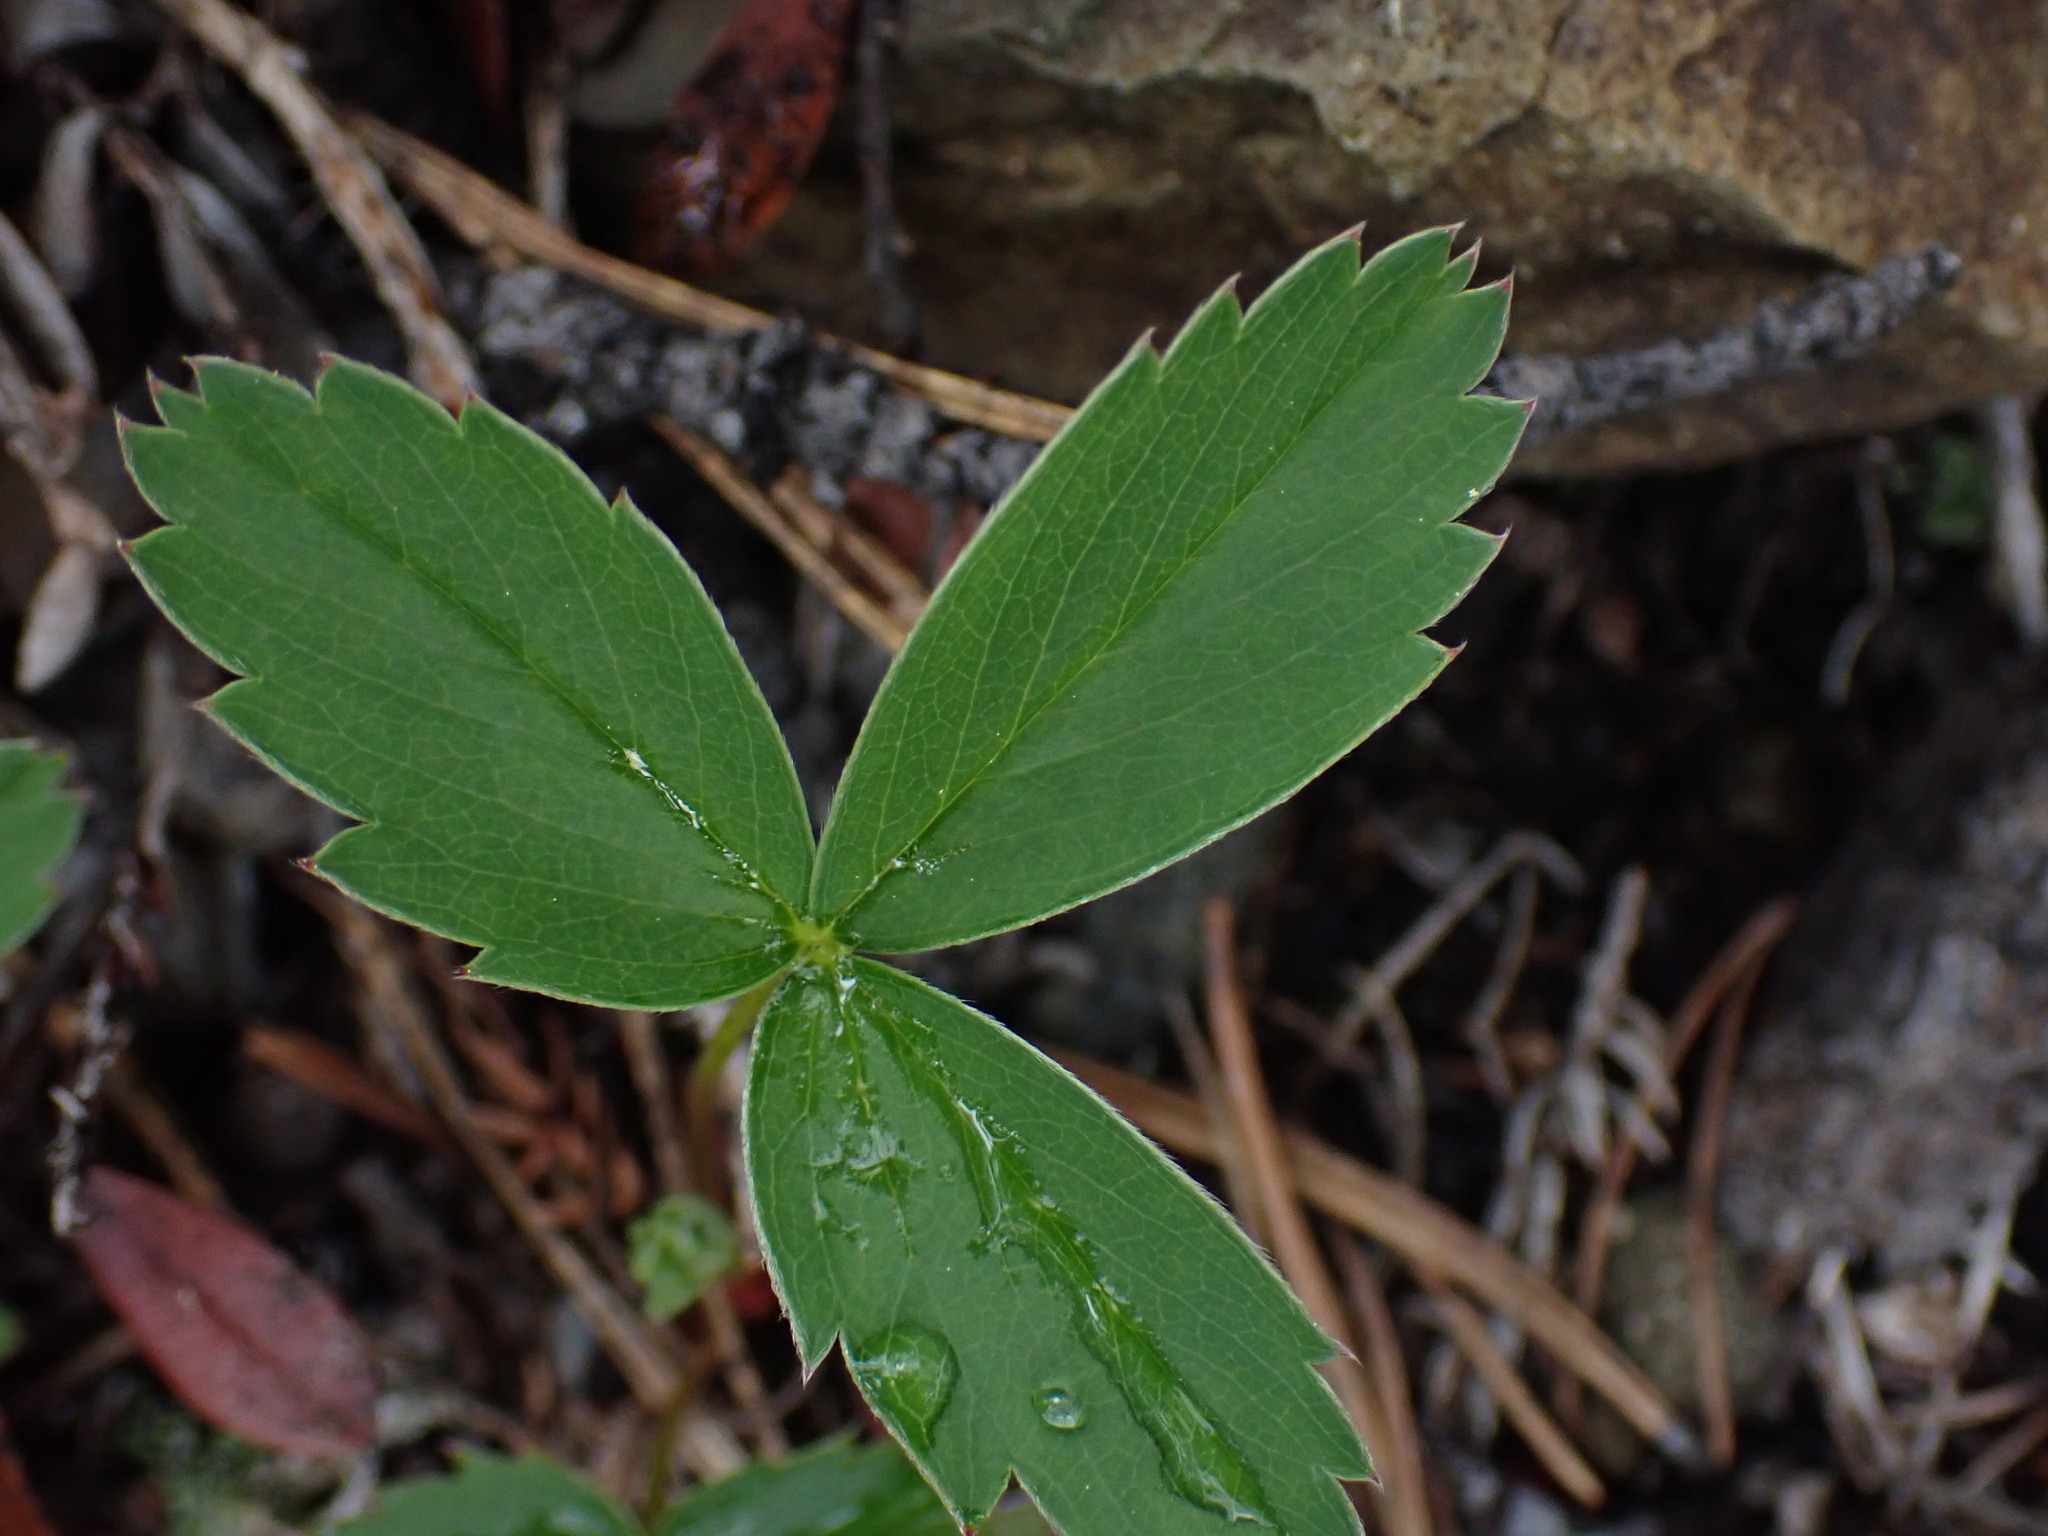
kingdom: Plantae
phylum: Tracheophyta
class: Magnoliopsida
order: Rosales
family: Rosaceae
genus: Fragaria
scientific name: Fragaria virginiana
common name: Thickleaved wild strawberry
